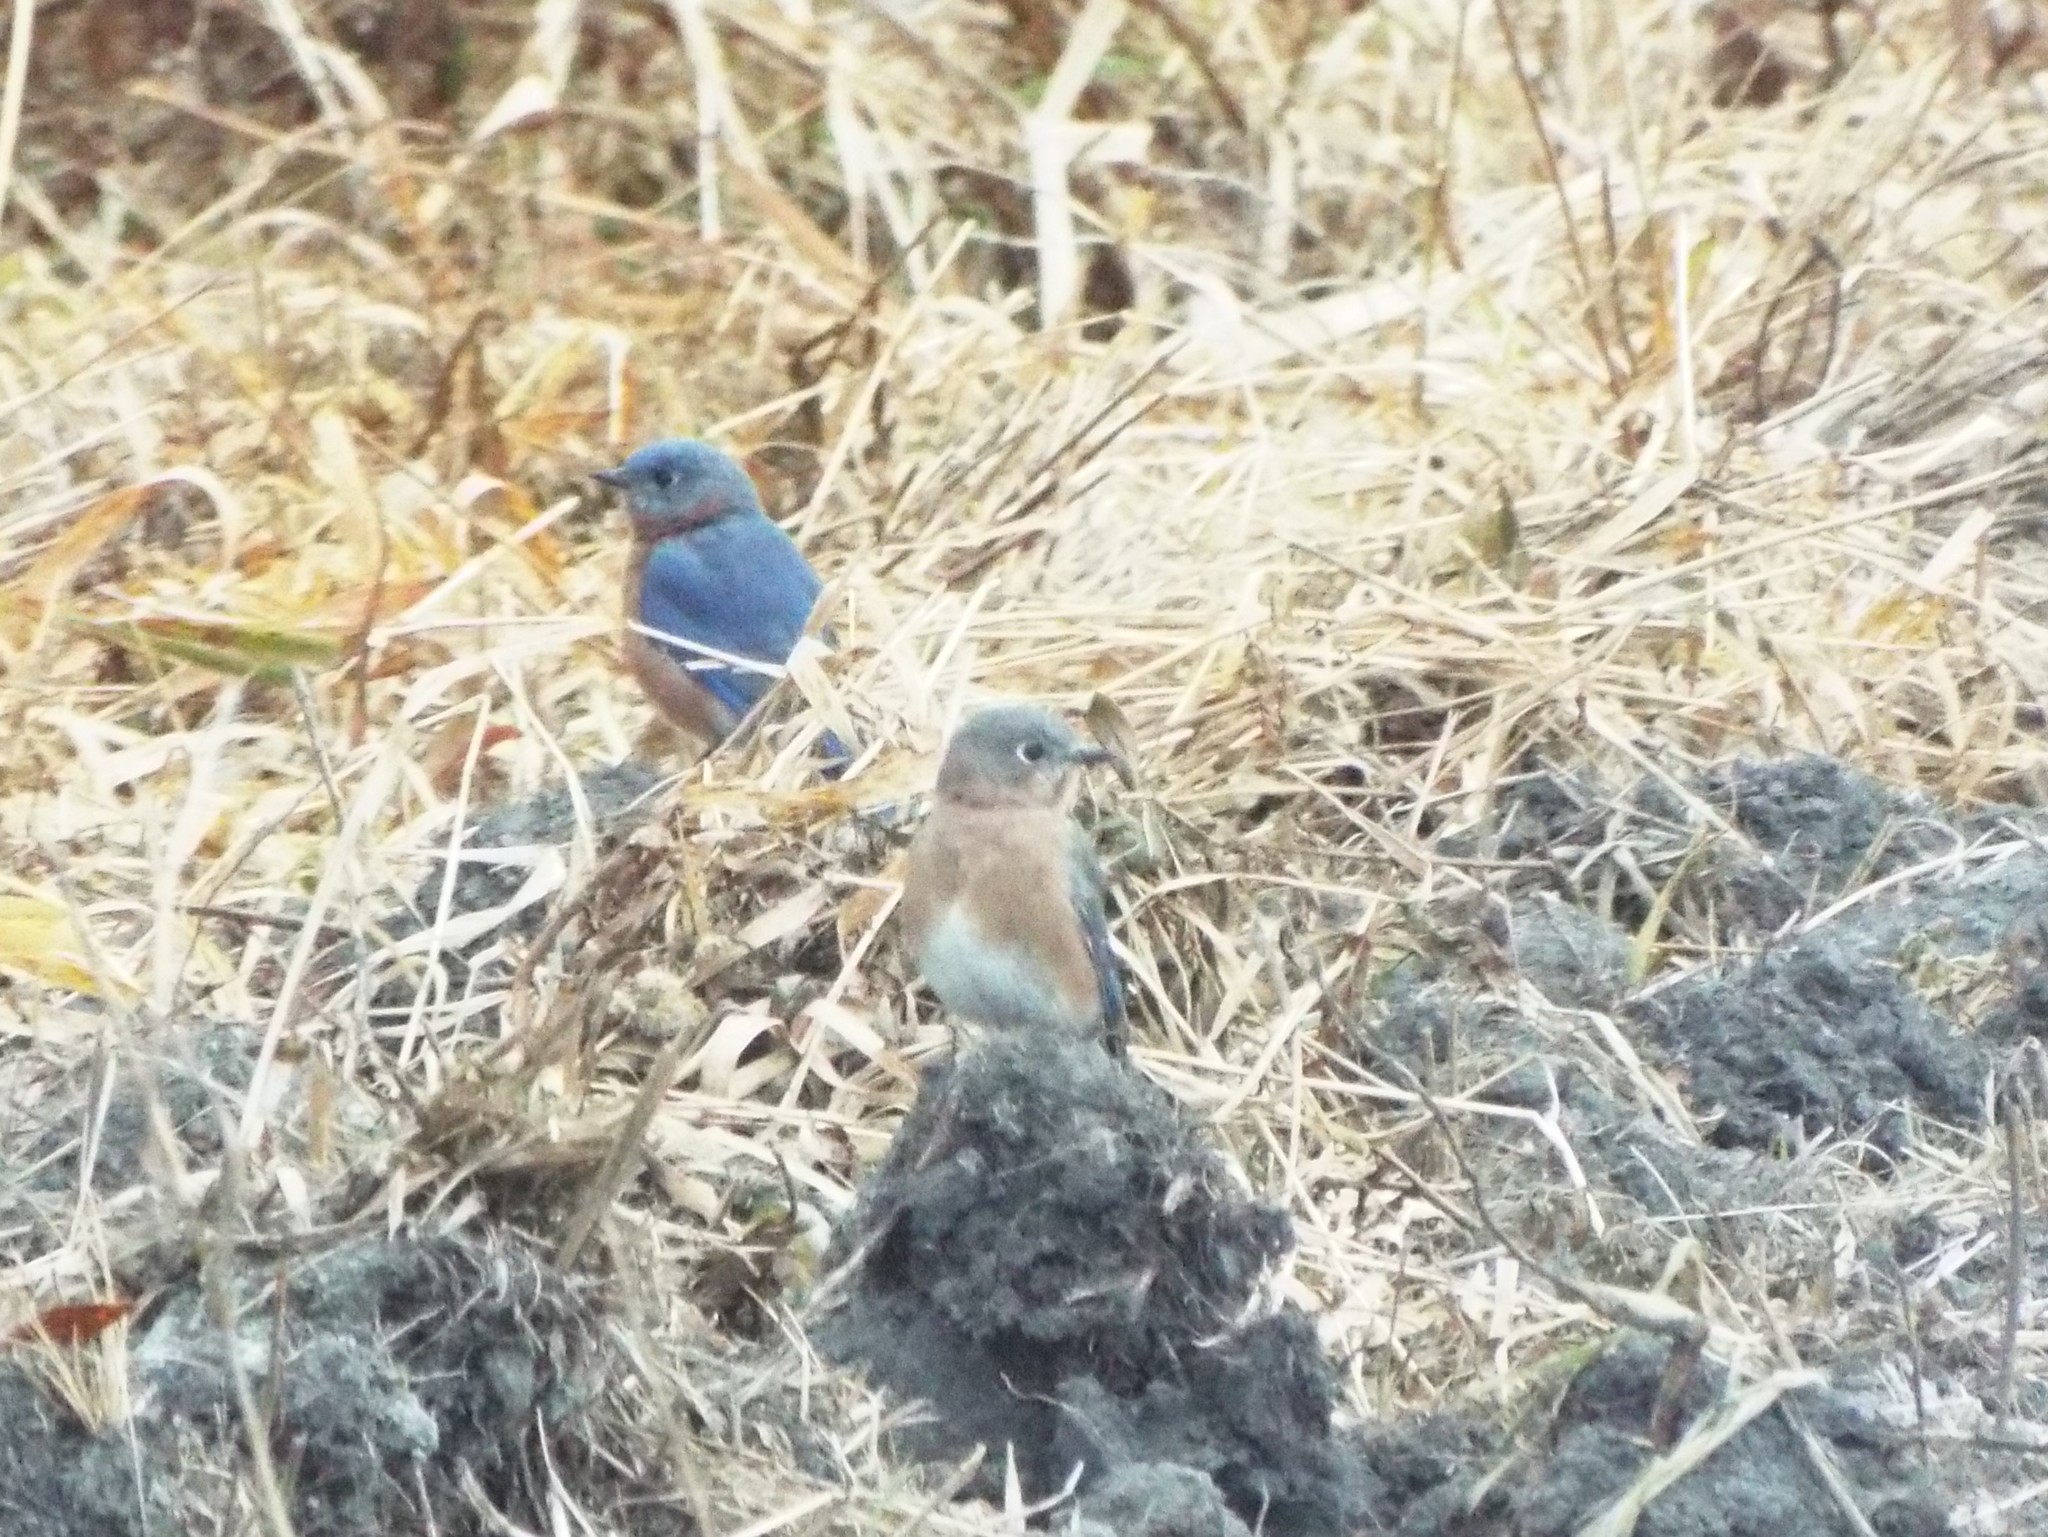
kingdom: Animalia
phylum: Chordata
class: Aves
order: Passeriformes
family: Turdidae
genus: Sialia
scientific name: Sialia sialis
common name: Eastern bluebird
